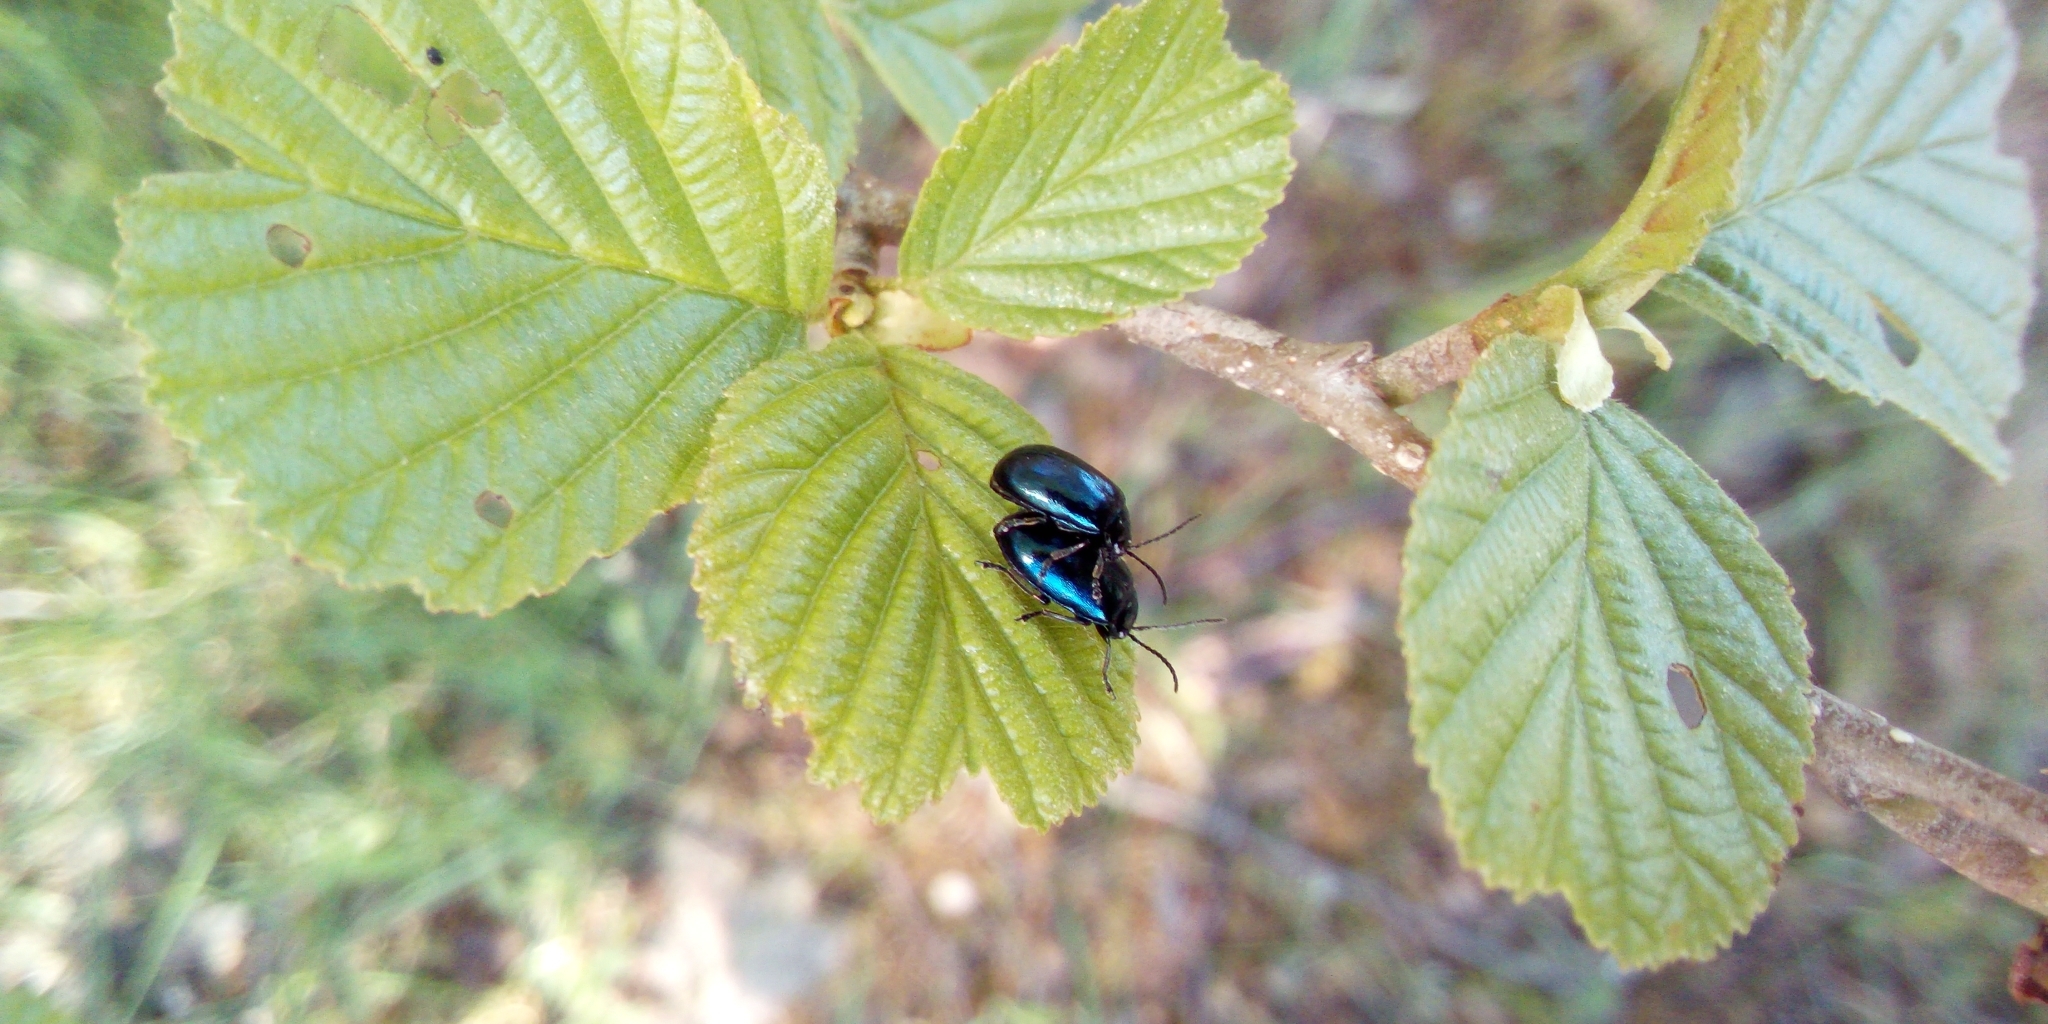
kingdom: Animalia
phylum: Arthropoda
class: Insecta
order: Coleoptera
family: Chrysomelidae
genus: Agelastica
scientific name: Agelastica alni
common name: Alder leaf beetle
